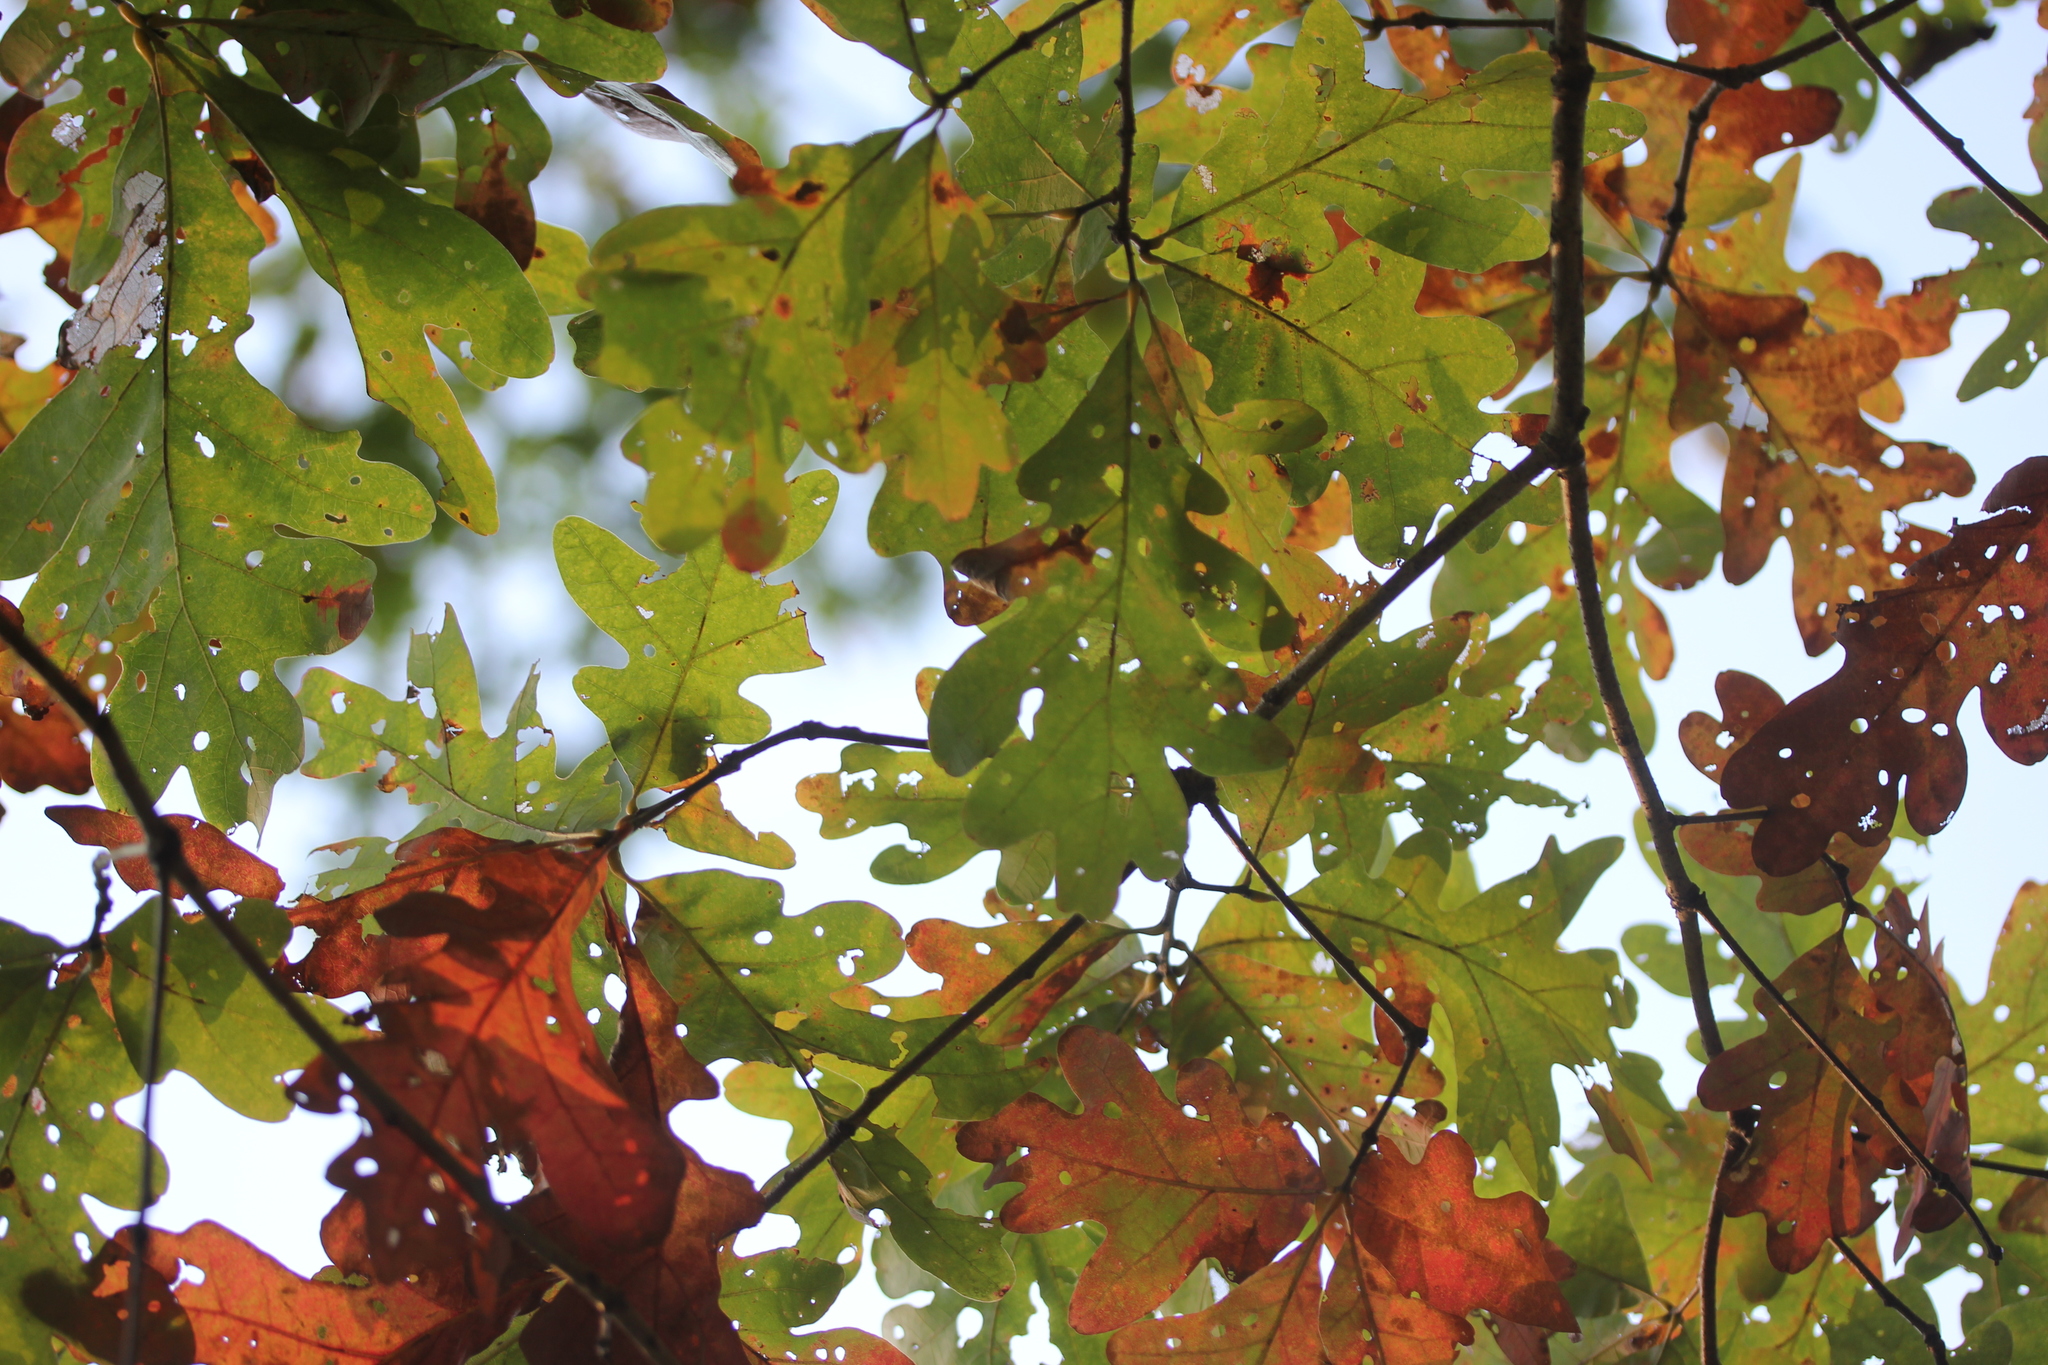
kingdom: Plantae
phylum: Tracheophyta
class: Magnoliopsida
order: Fagales
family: Fagaceae
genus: Quercus
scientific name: Quercus alba
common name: White oak
